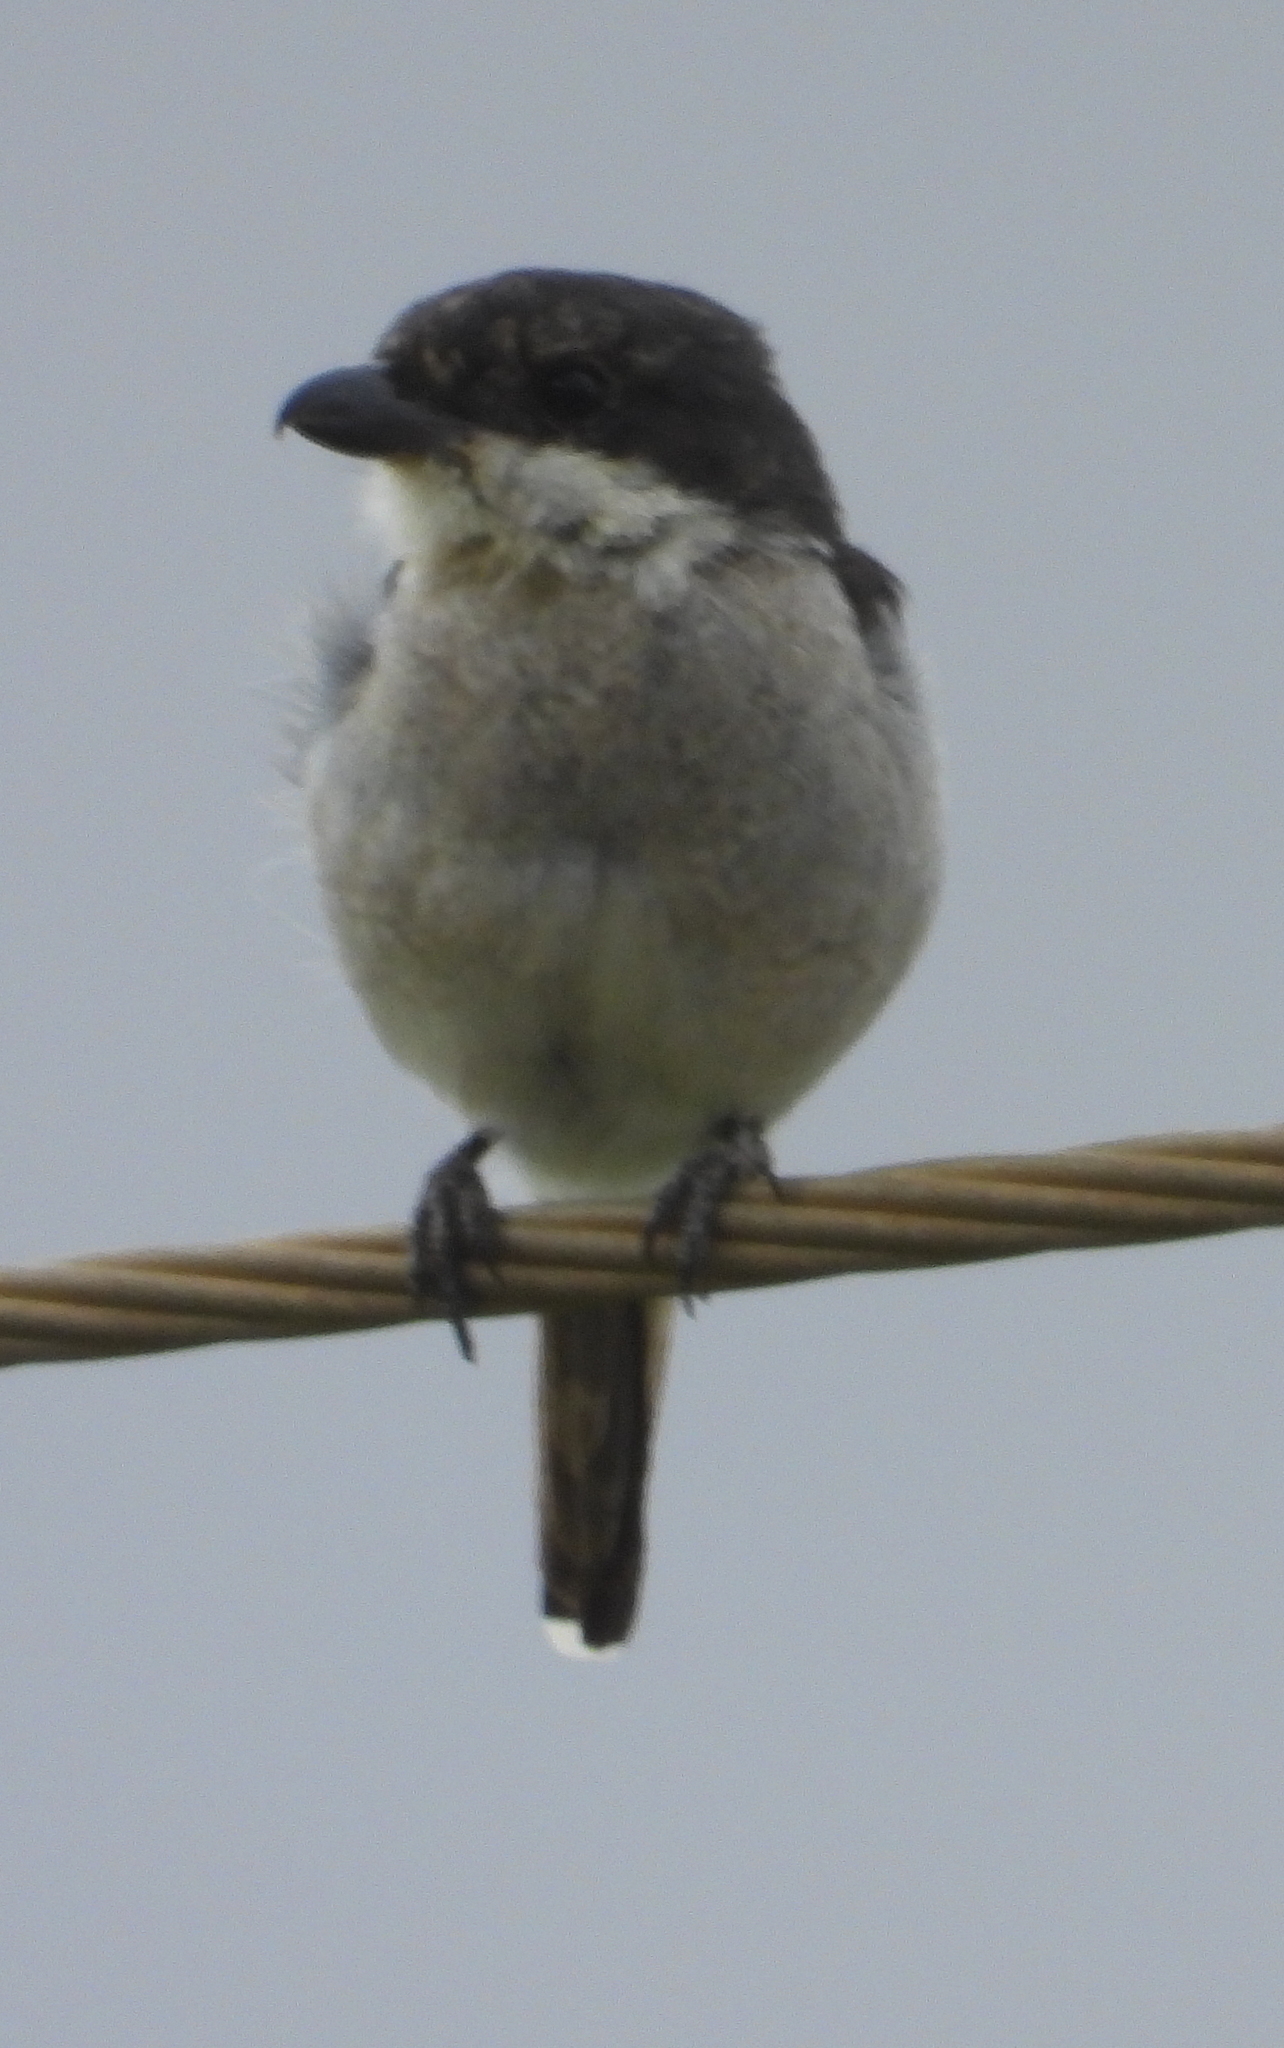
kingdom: Animalia
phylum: Chordata
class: Aves
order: Passeriformes
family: Laniidae
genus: Lanius
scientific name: Lanius collaris
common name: Southern fiscal
